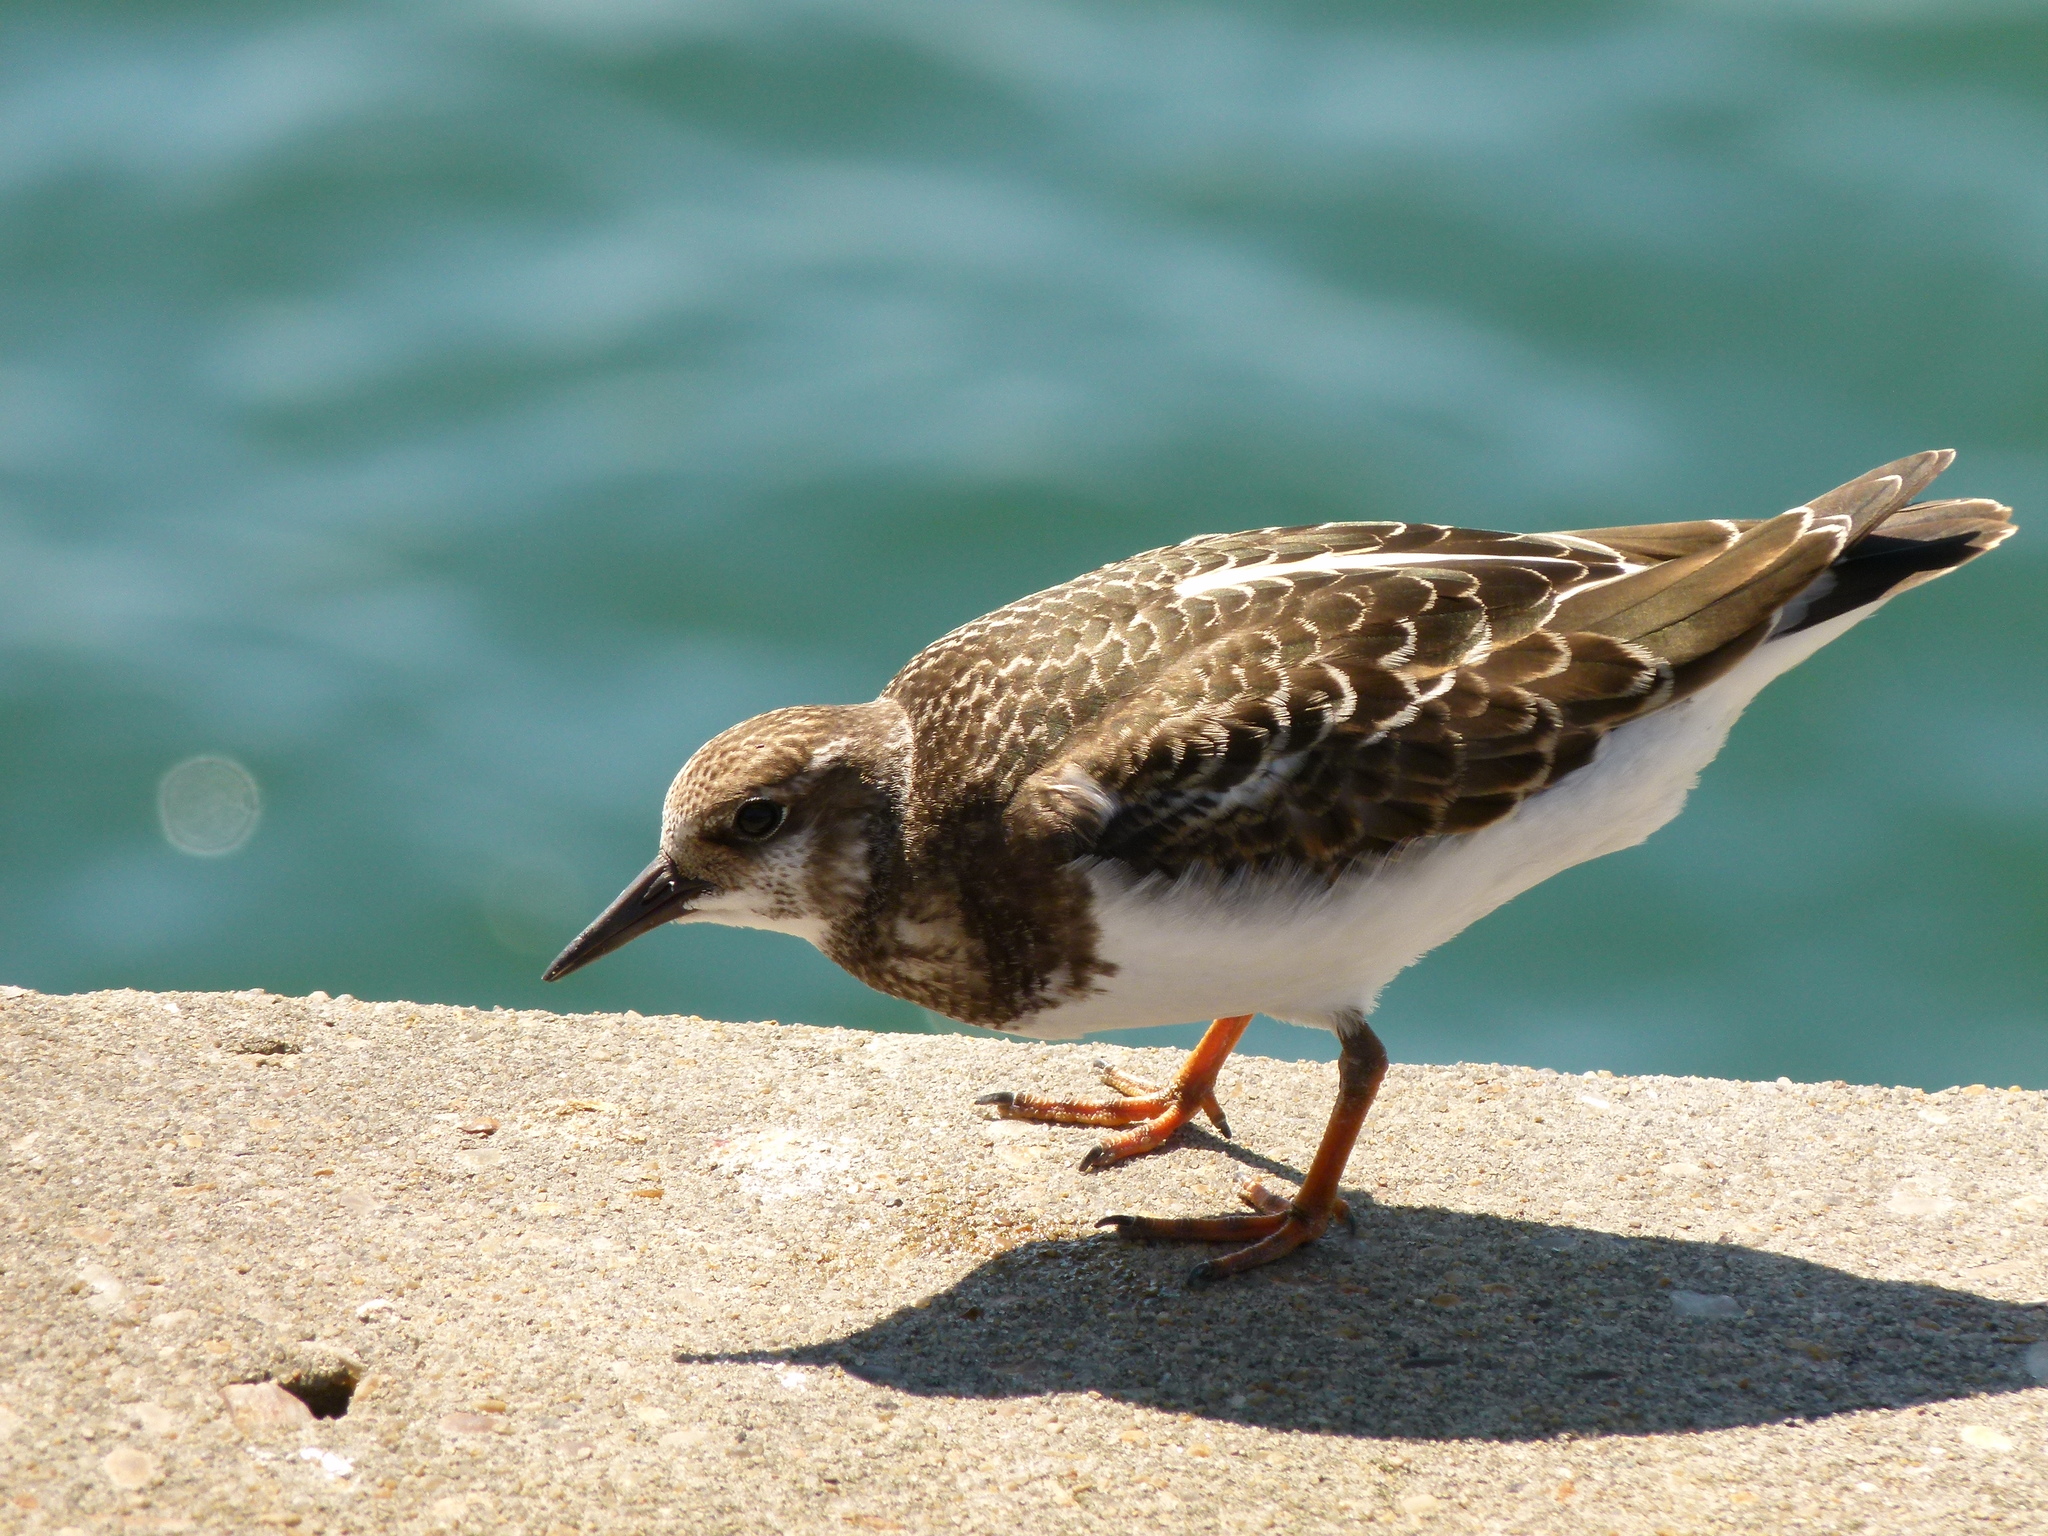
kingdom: Animalia
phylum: Chordata
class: Aves
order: Charadriiformes
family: Scolopacidae
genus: Arenaria
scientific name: Arenaria interpres
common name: Ruddy turnstone
